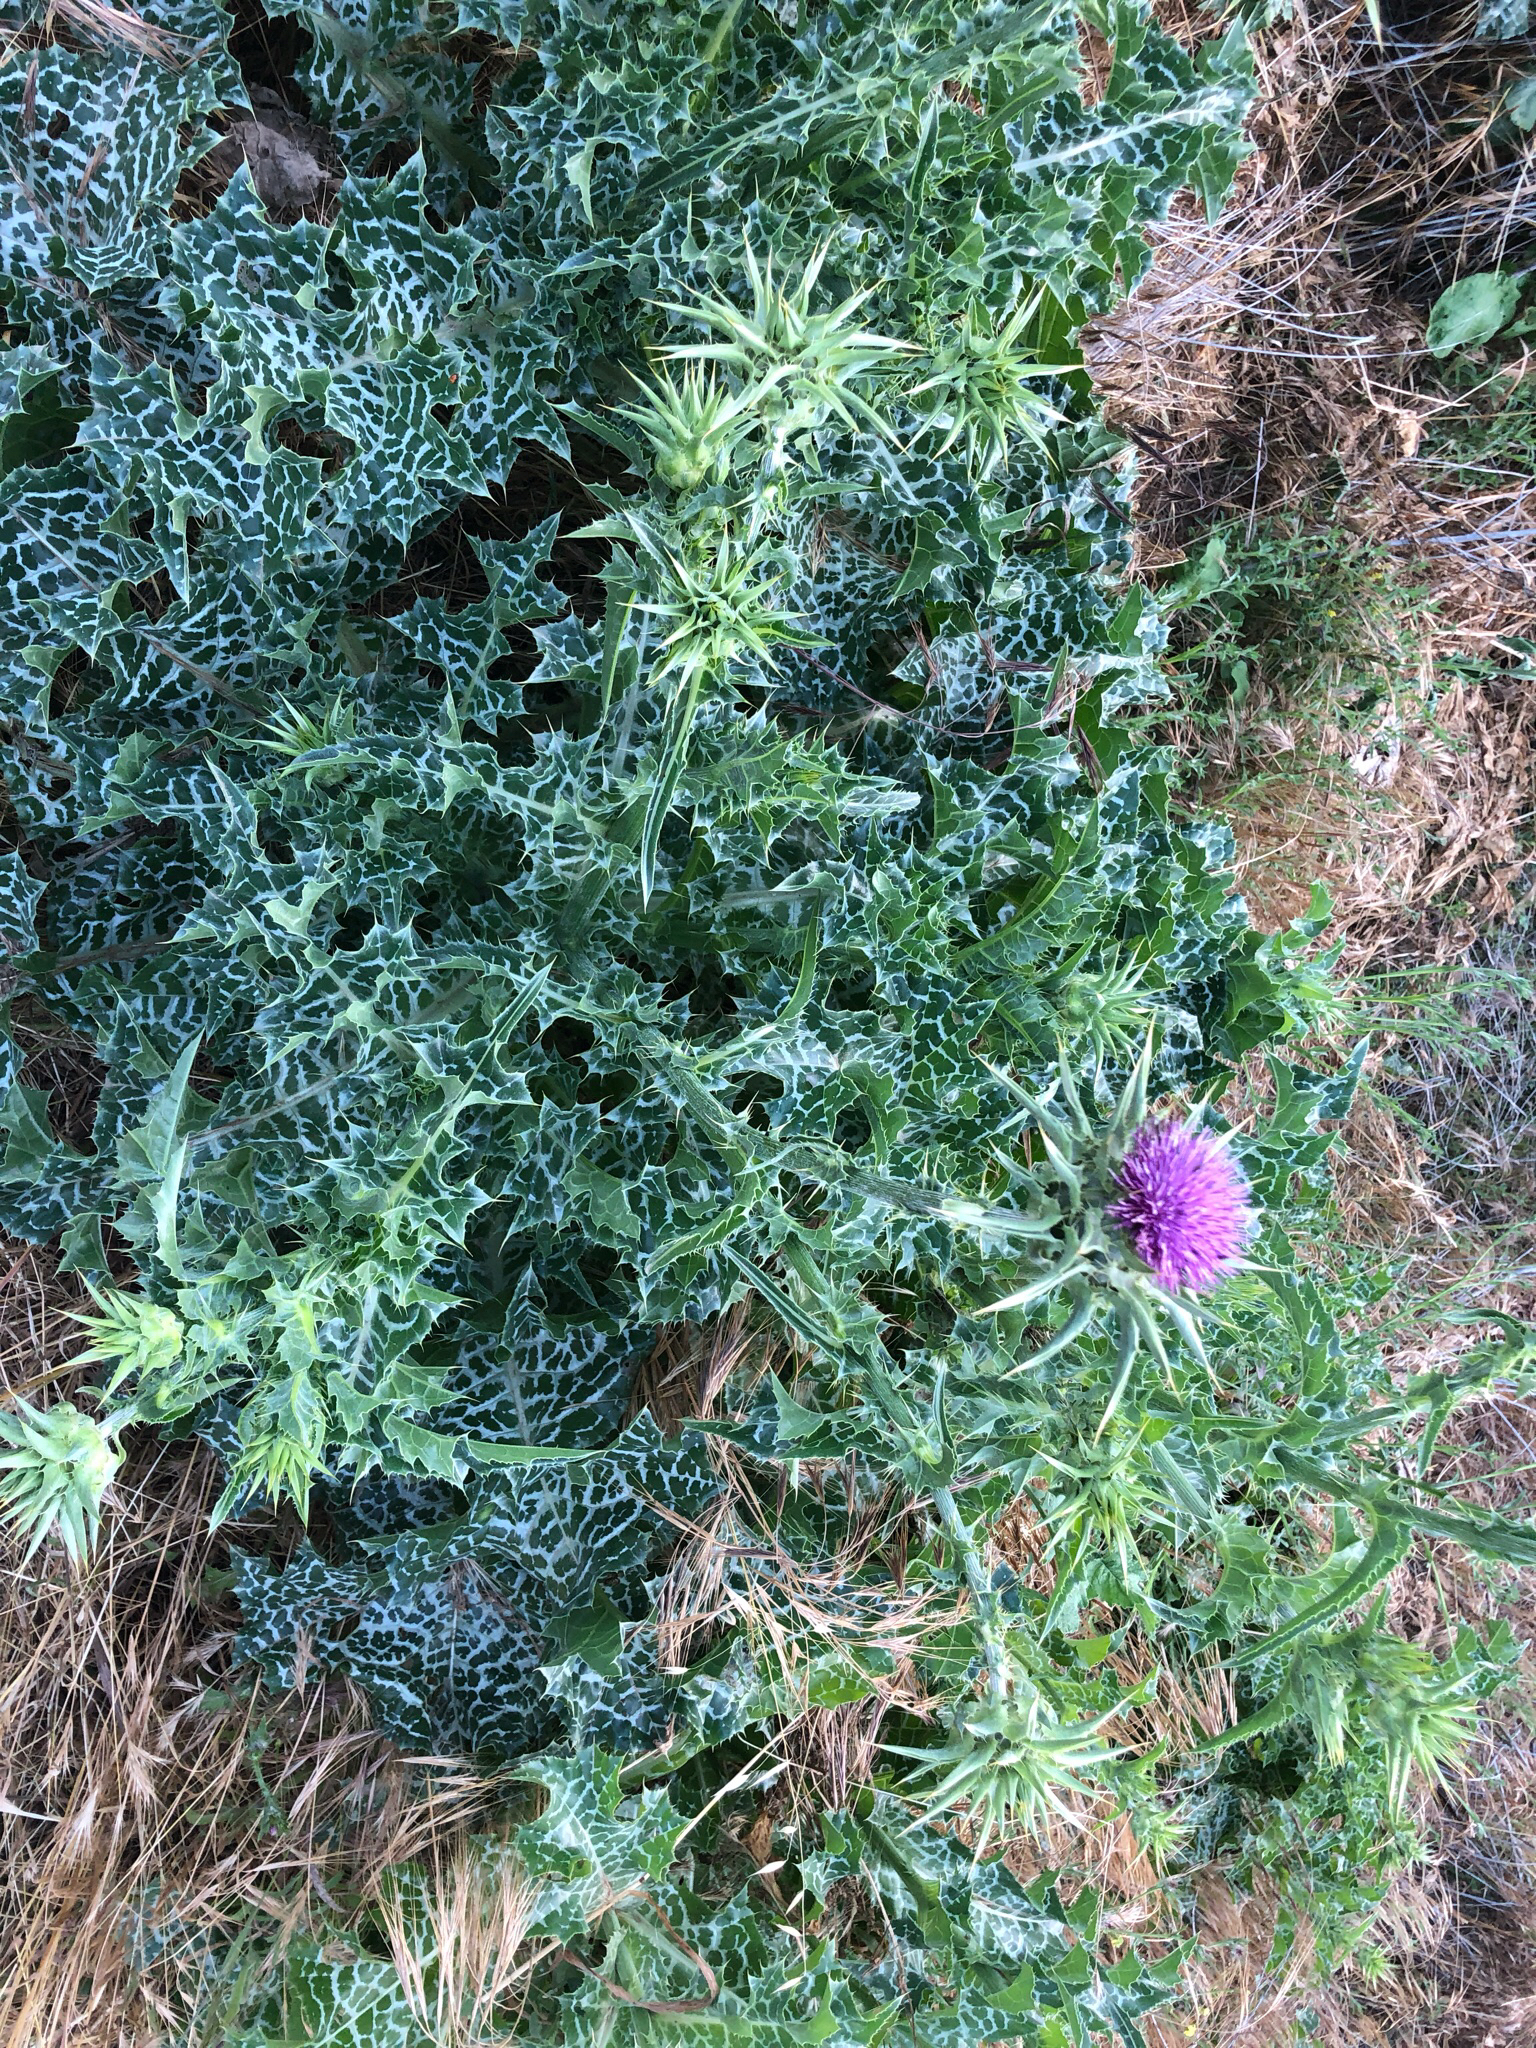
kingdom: Plantae
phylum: Tracheophyta
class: Magnoliopsida
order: Asterales
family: Asteraceae
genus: Silybum
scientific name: Silybum marianum
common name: Milk thistle
